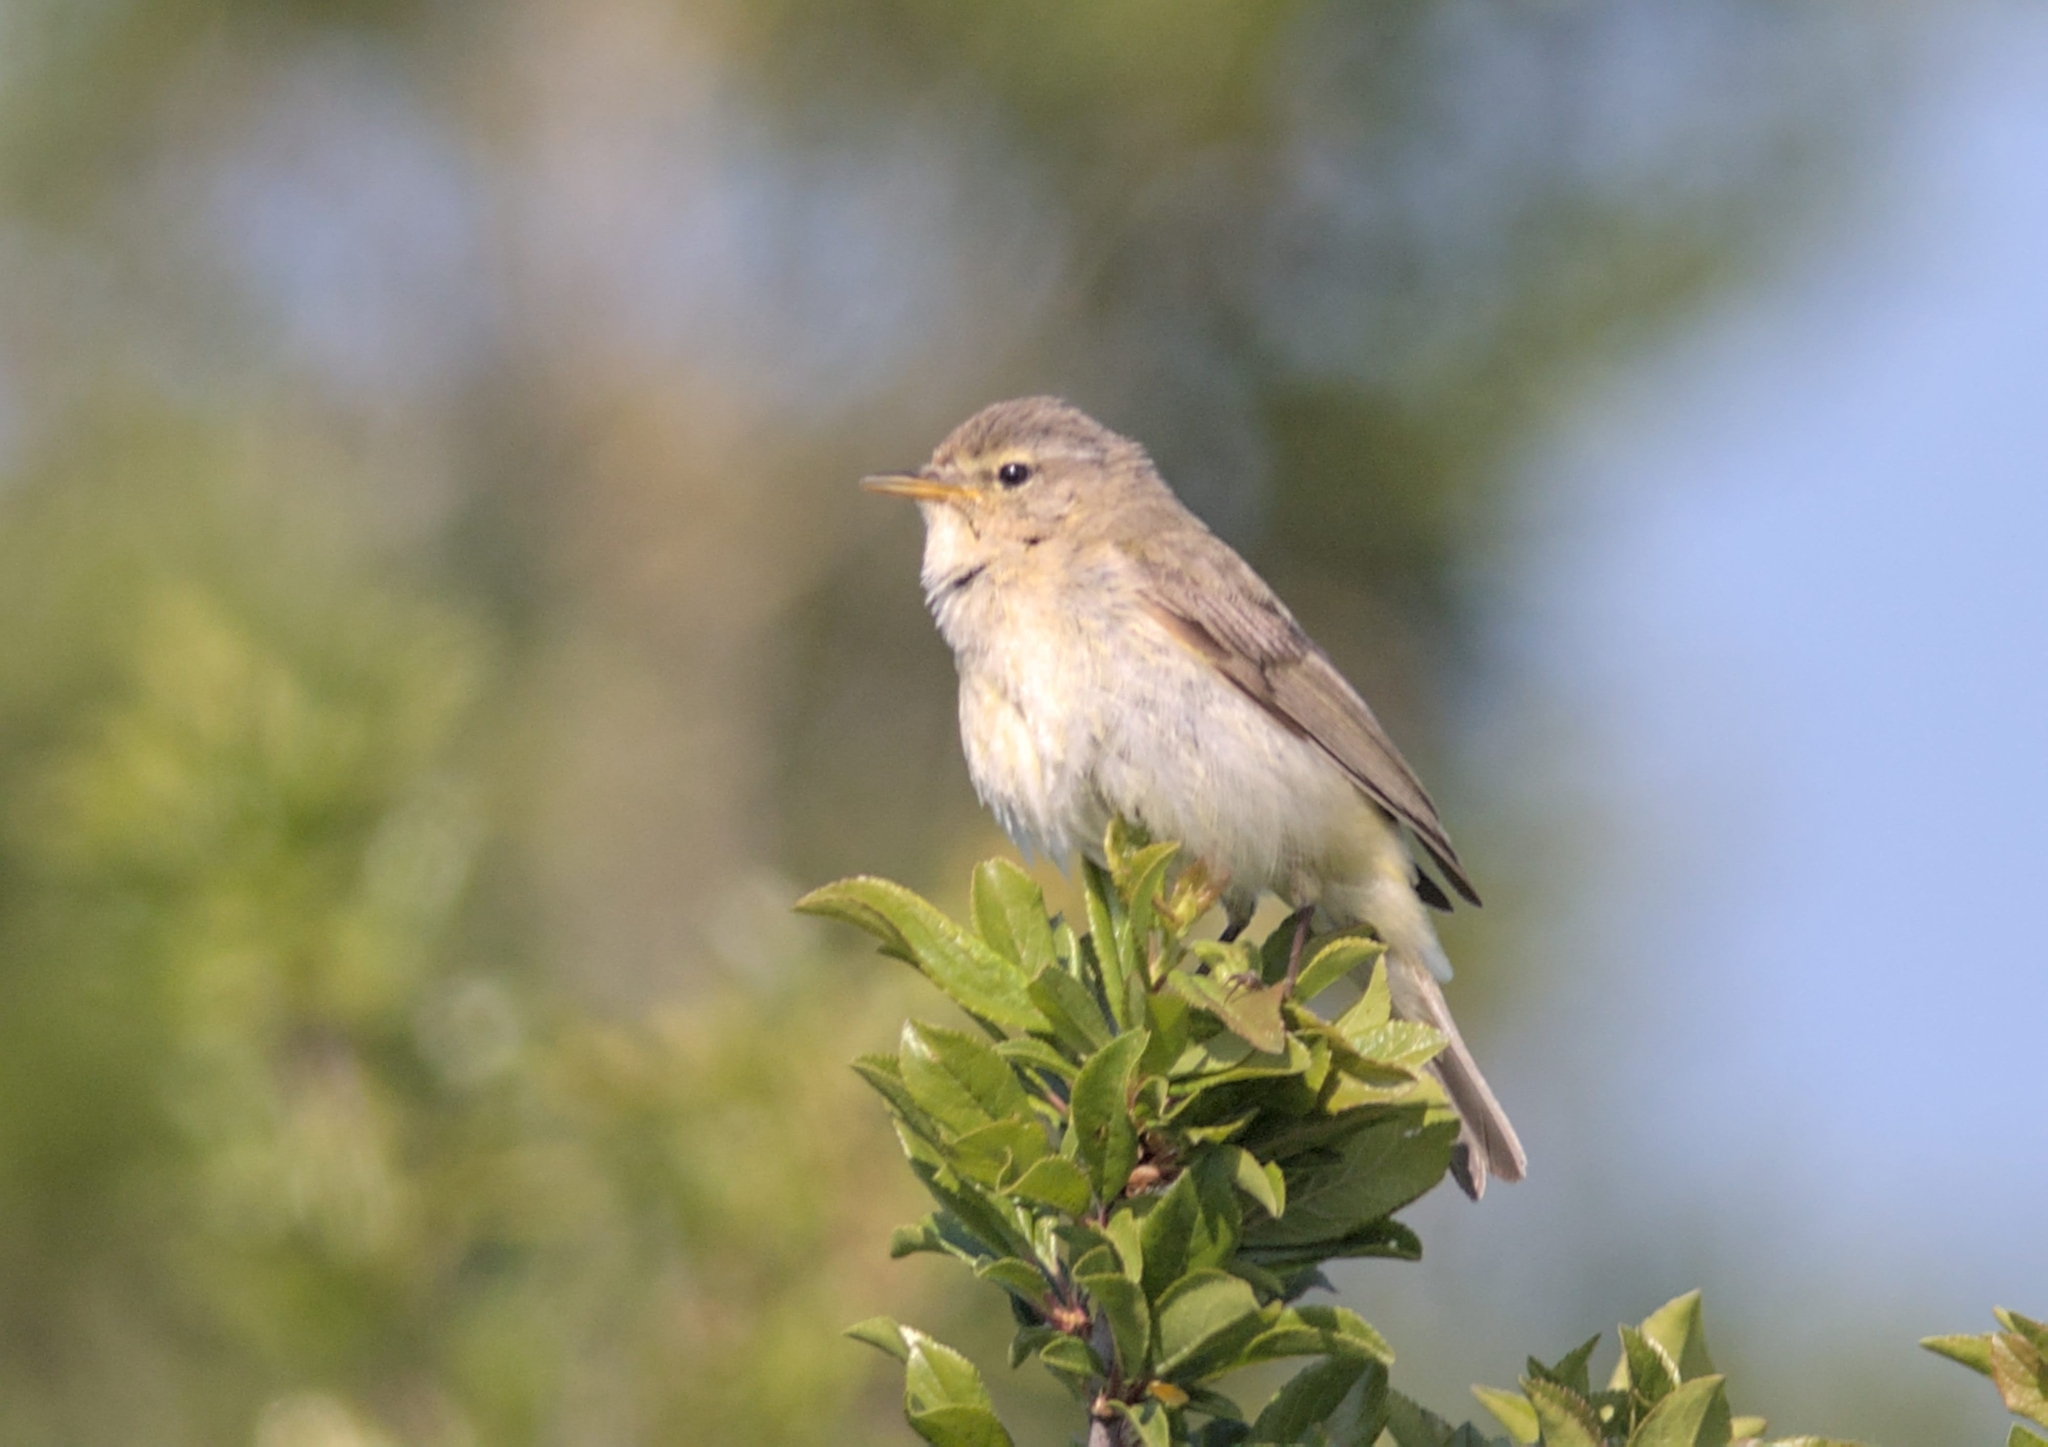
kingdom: Animalia
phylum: Chordata
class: Aves
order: Passeriformes
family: Phylloscopidae
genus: Phylloscopus
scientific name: Phylloscopus collybita
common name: Common chiffchaff
